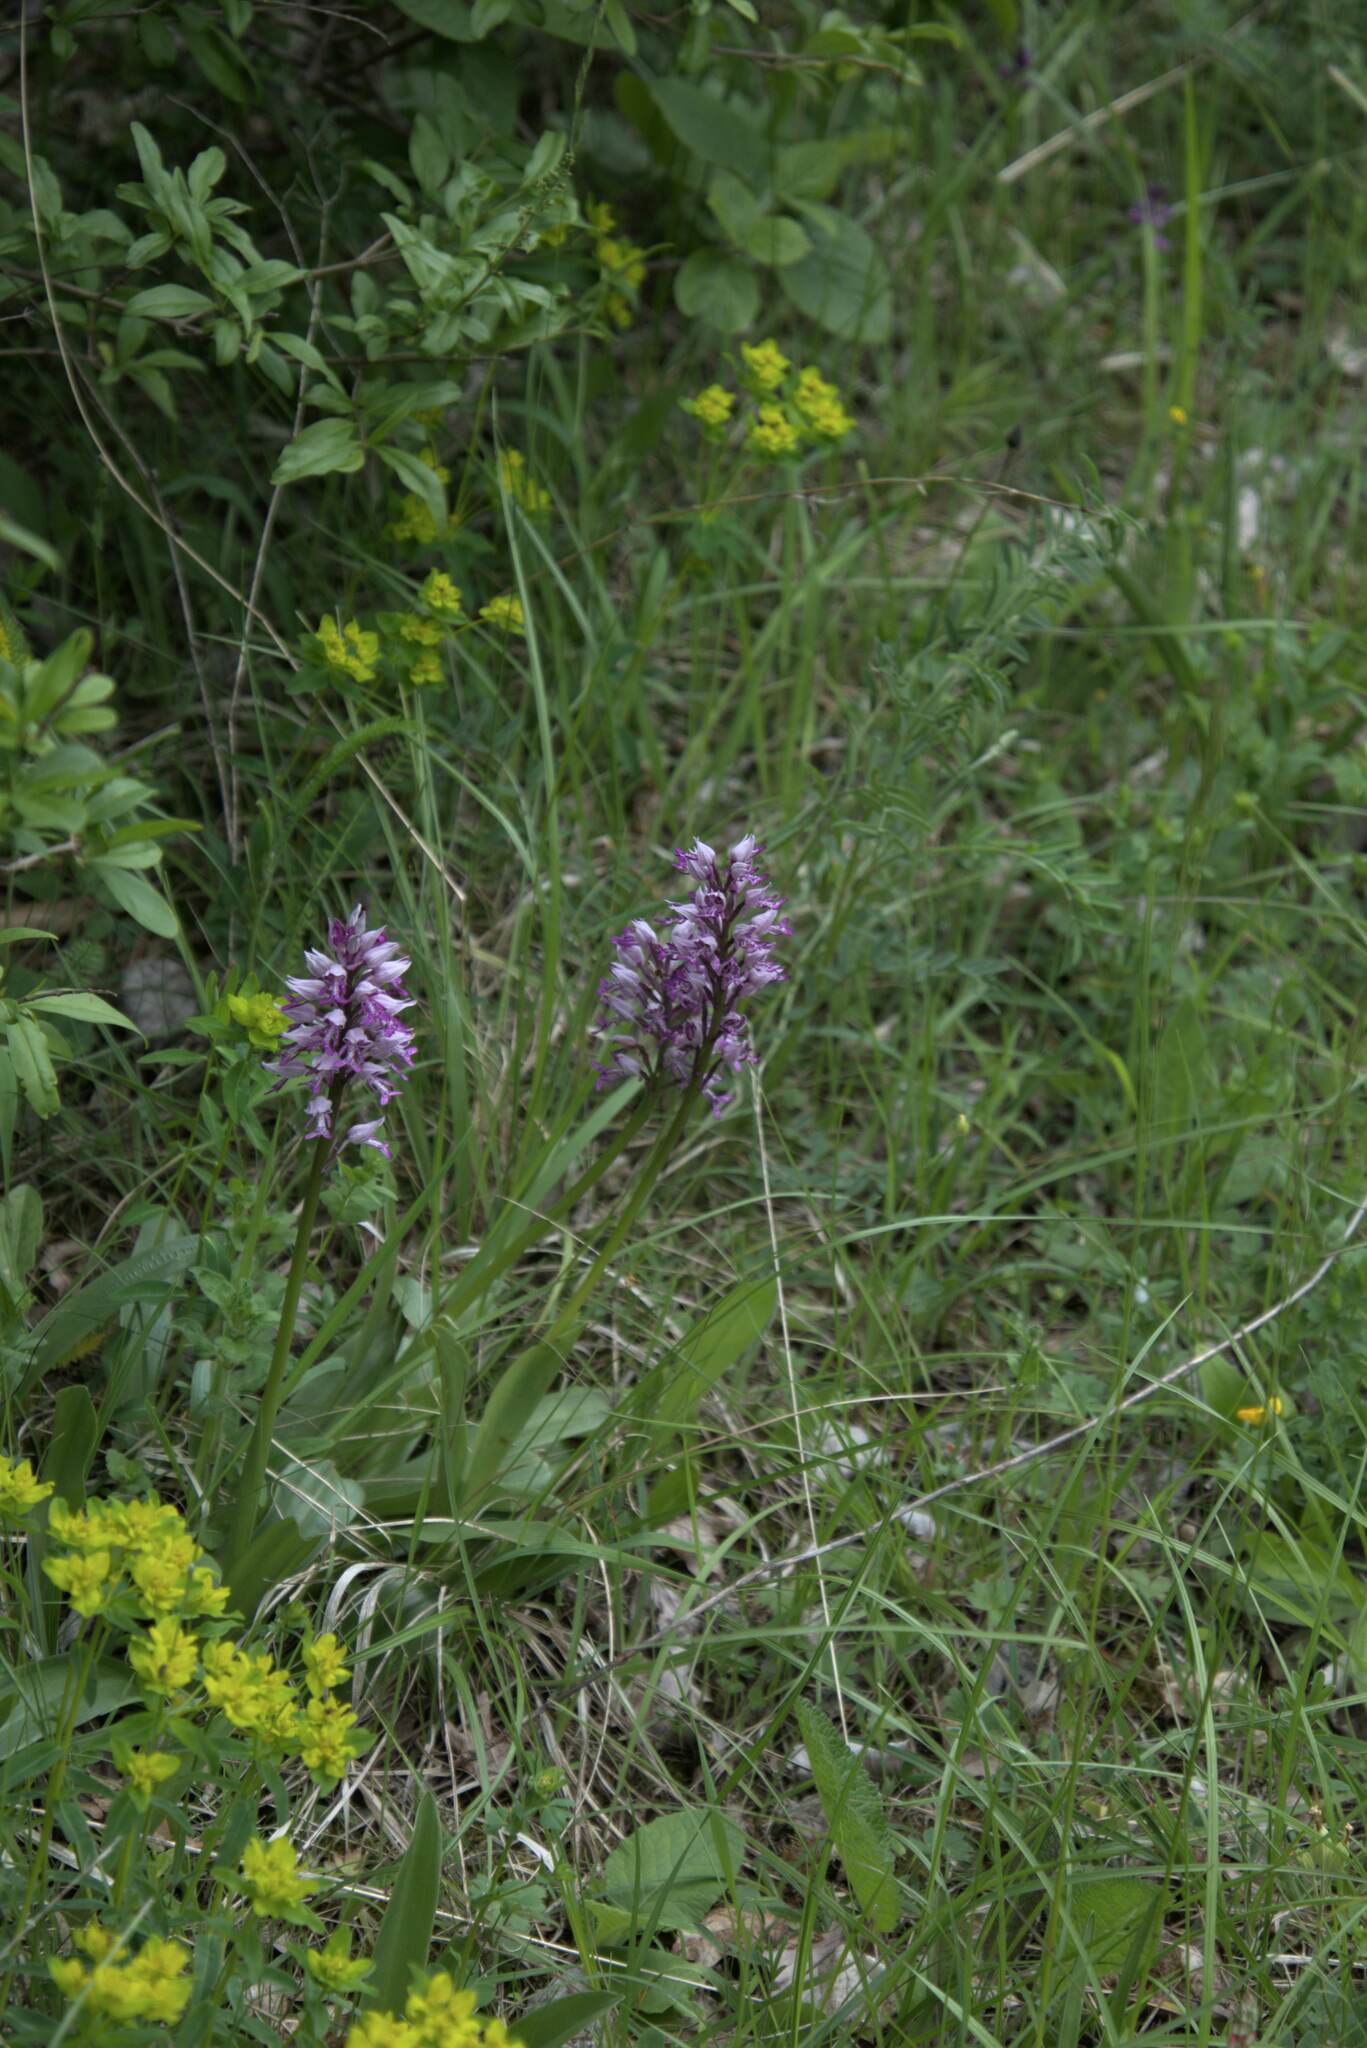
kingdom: Plantae
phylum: Tracheophyta
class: Liliopsida
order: Asparagales
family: Orchidaceae
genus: Orchis
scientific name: Orchis militaris
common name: Military orchid
